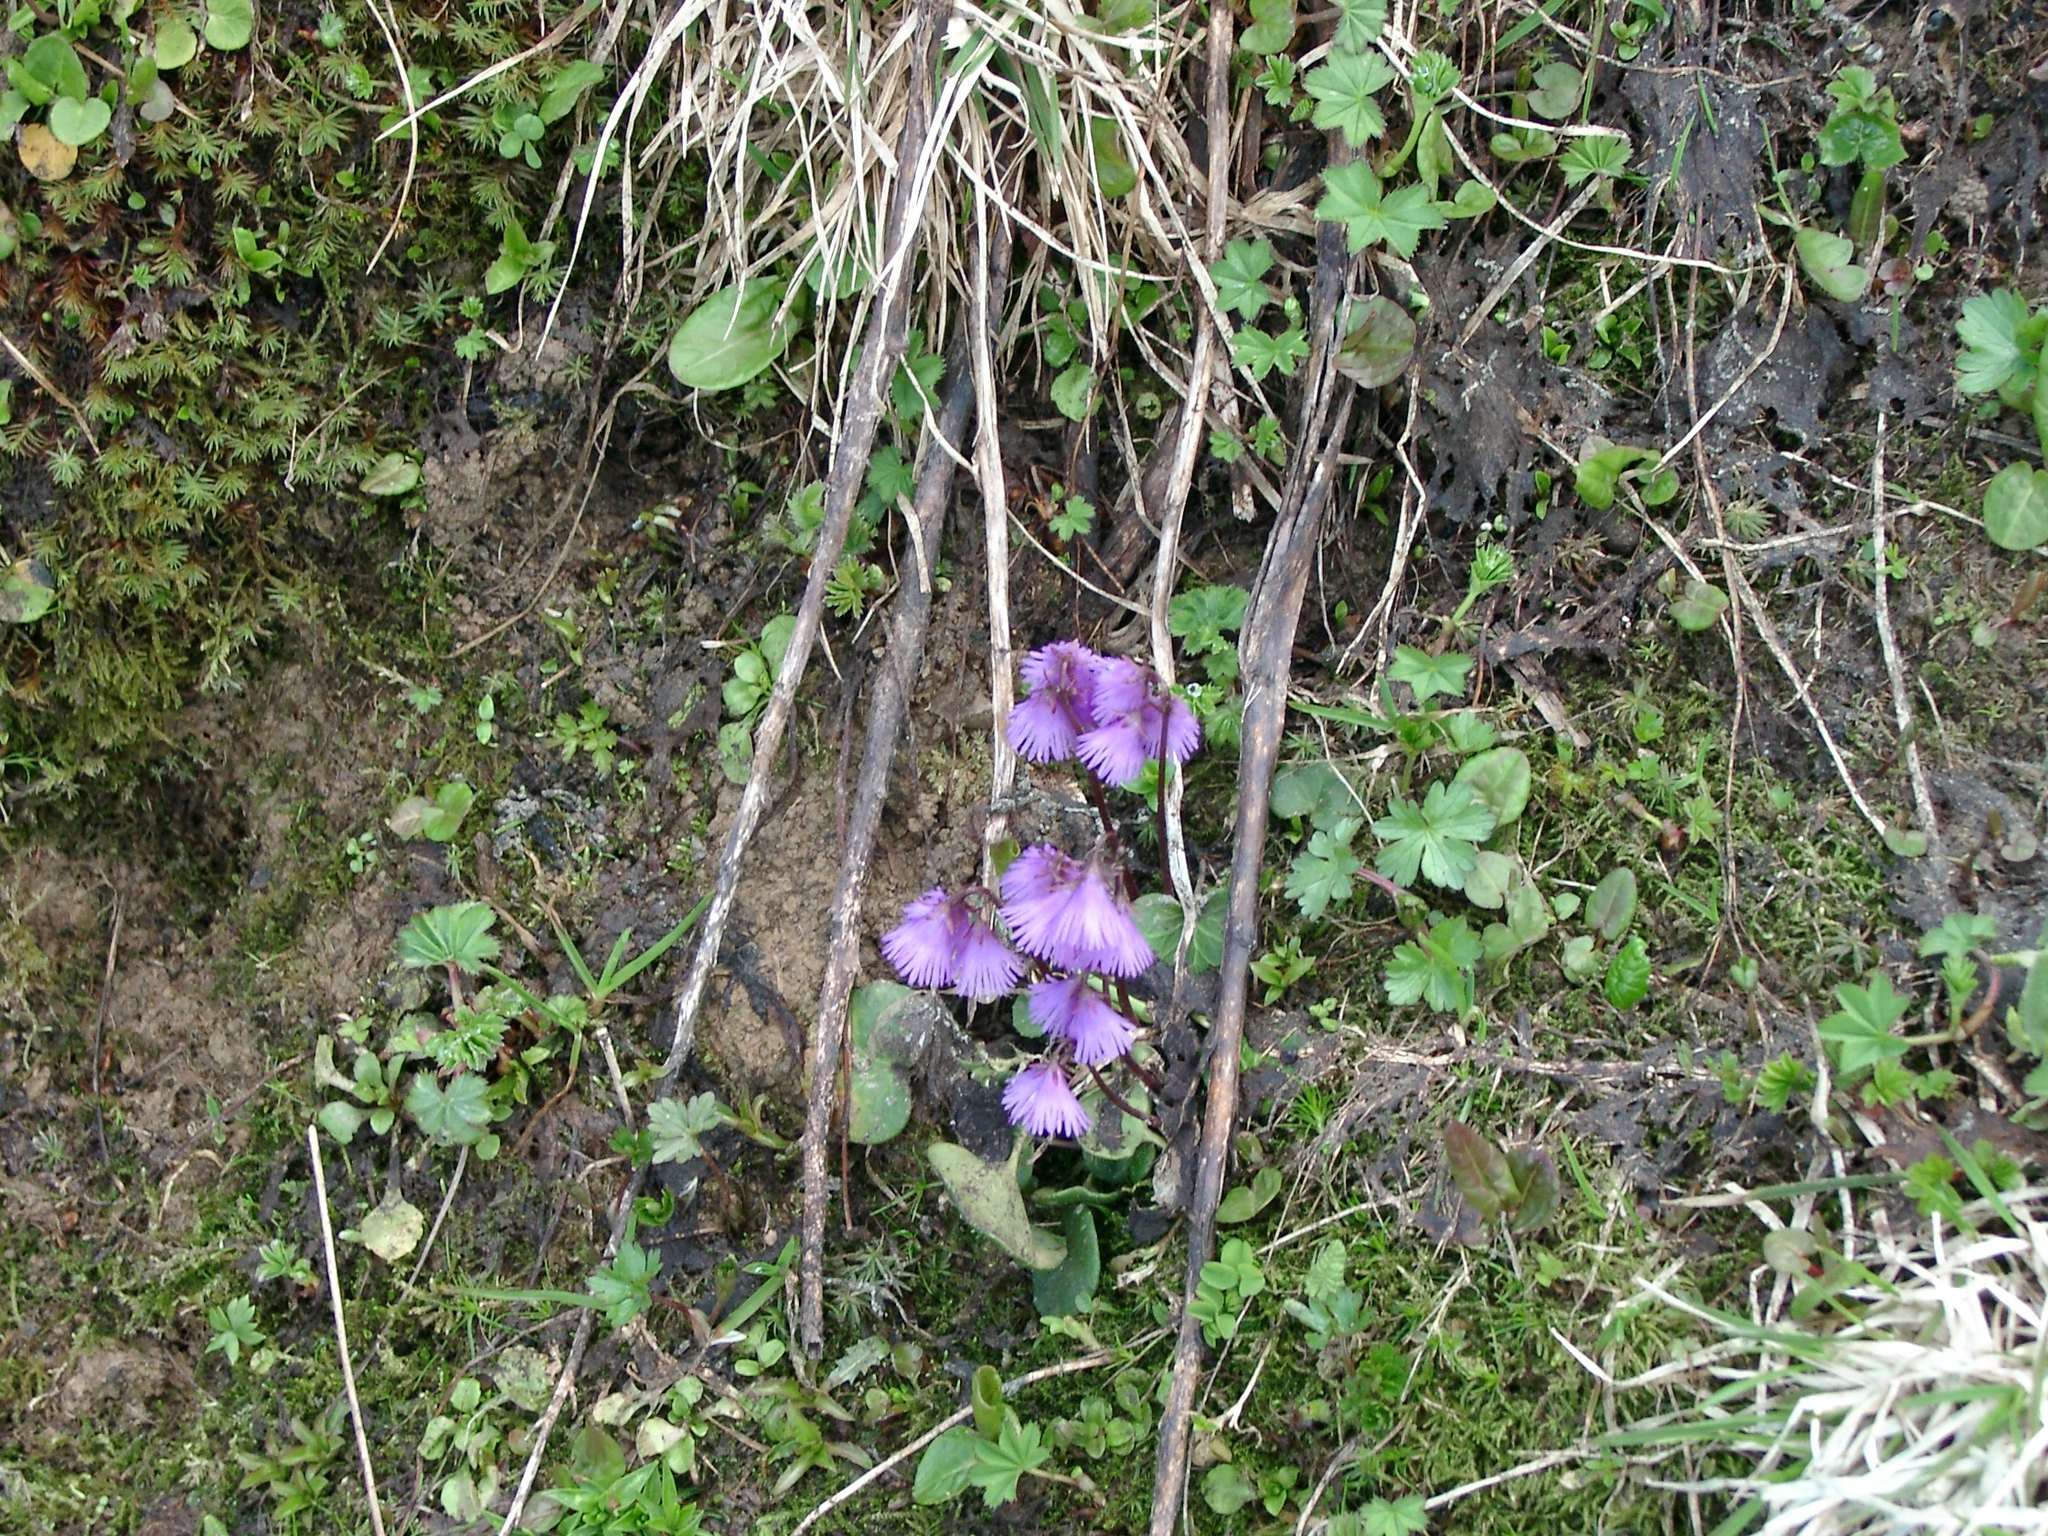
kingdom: Plantae
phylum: Tracheophyta
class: Magnoliopsida
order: Ericales
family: Primulaceae
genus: Soldanella
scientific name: Soldanella alpina
